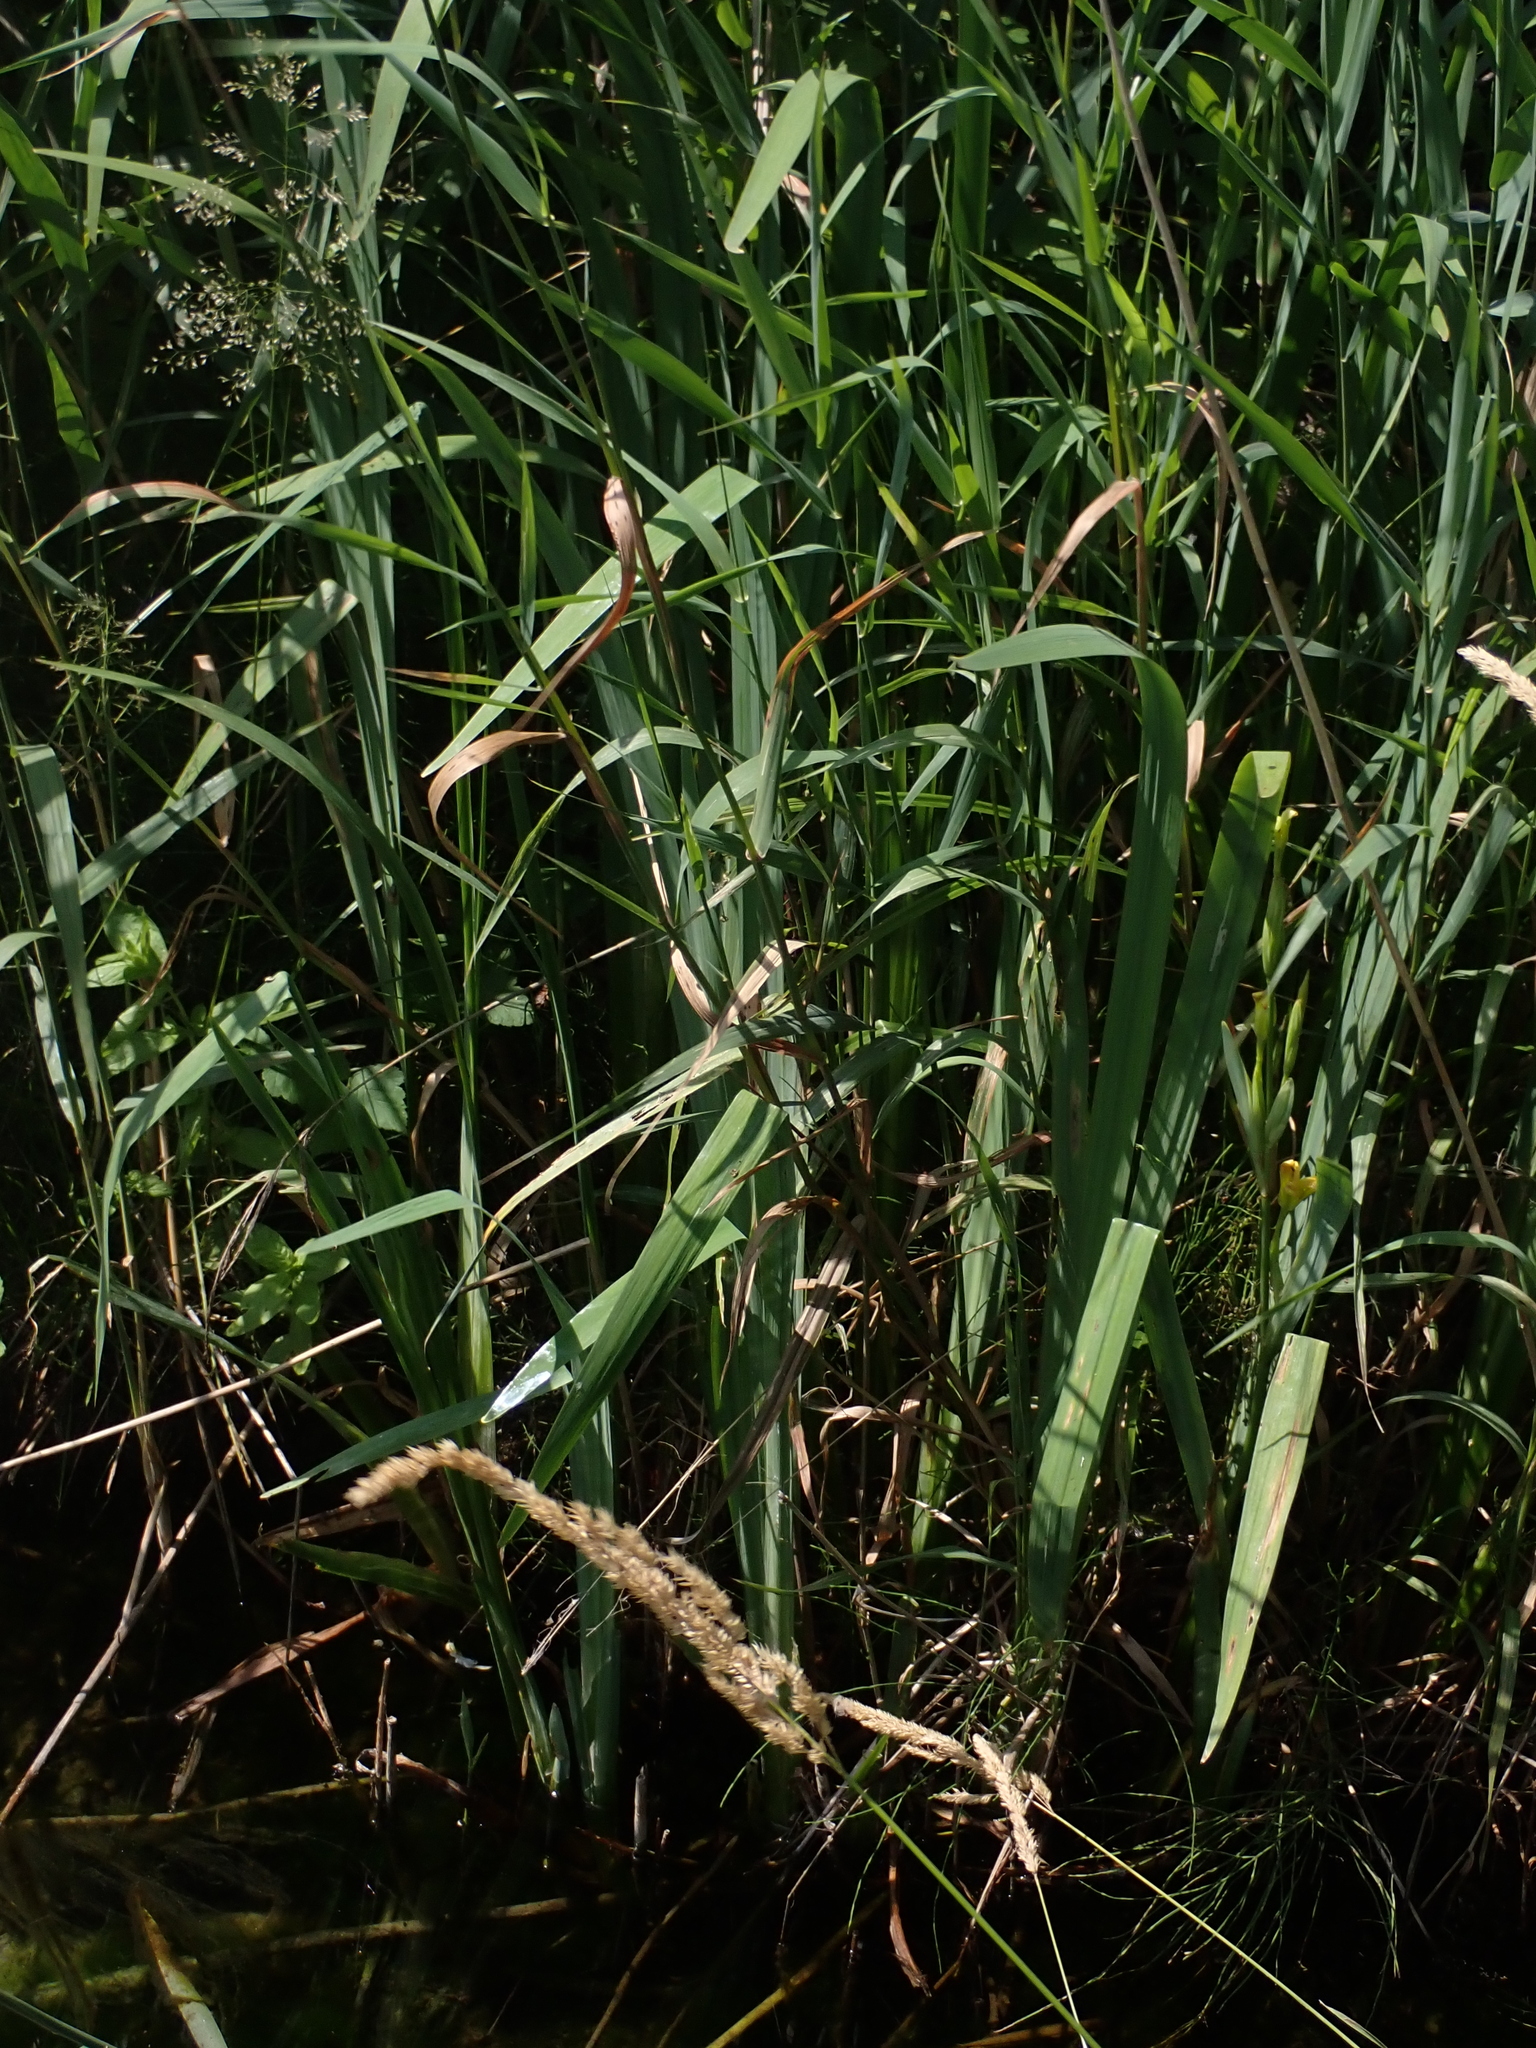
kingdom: Plantae
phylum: Tracheophyta
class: Liliopsida
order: Asparagales
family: Iridaceae
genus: Iris
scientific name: Iris pseudacorus
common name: Yellow flag
